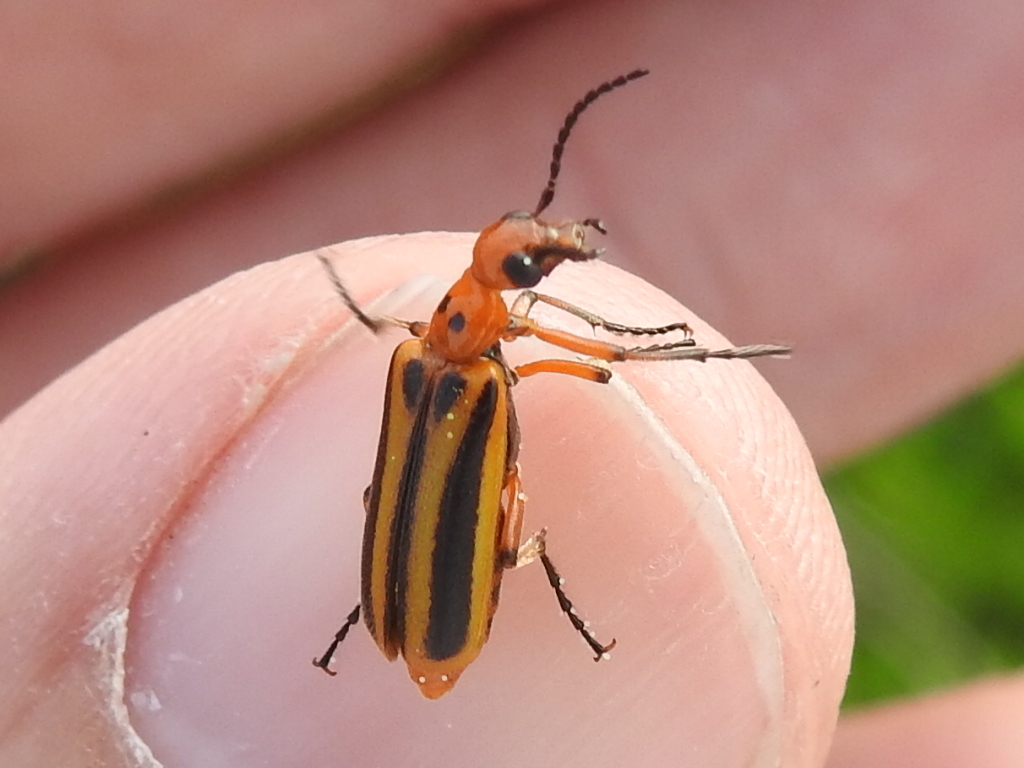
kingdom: Animalia
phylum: Arthropoda
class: Insecta
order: Coleoptera
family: Meloidae
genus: Pyrota
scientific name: Pyrota discoidea
